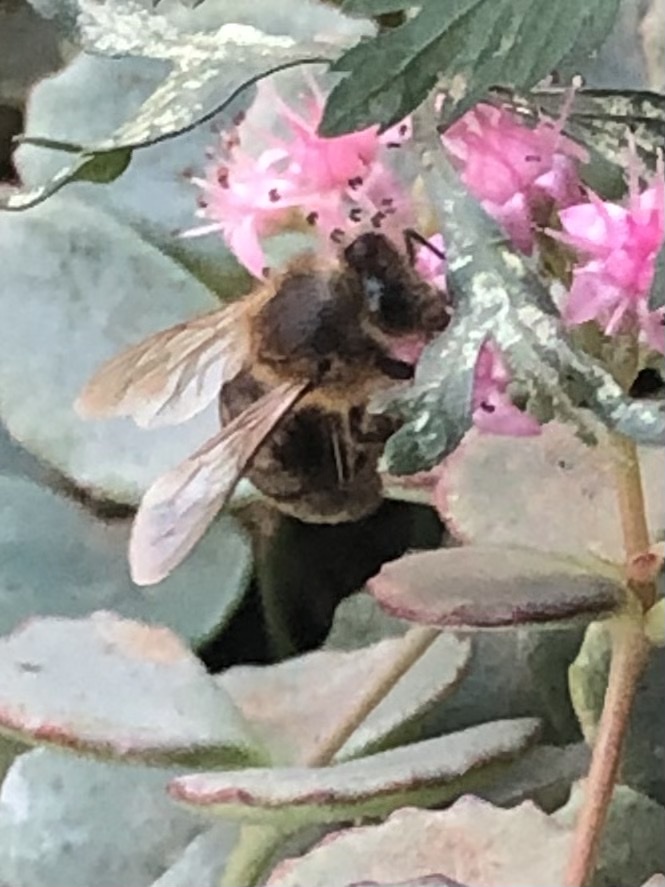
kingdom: Animalia
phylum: Arthropoda
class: Insecta
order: Hymenoptera
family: Apidae
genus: Apis
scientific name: Apis mellifera
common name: Honey bee
